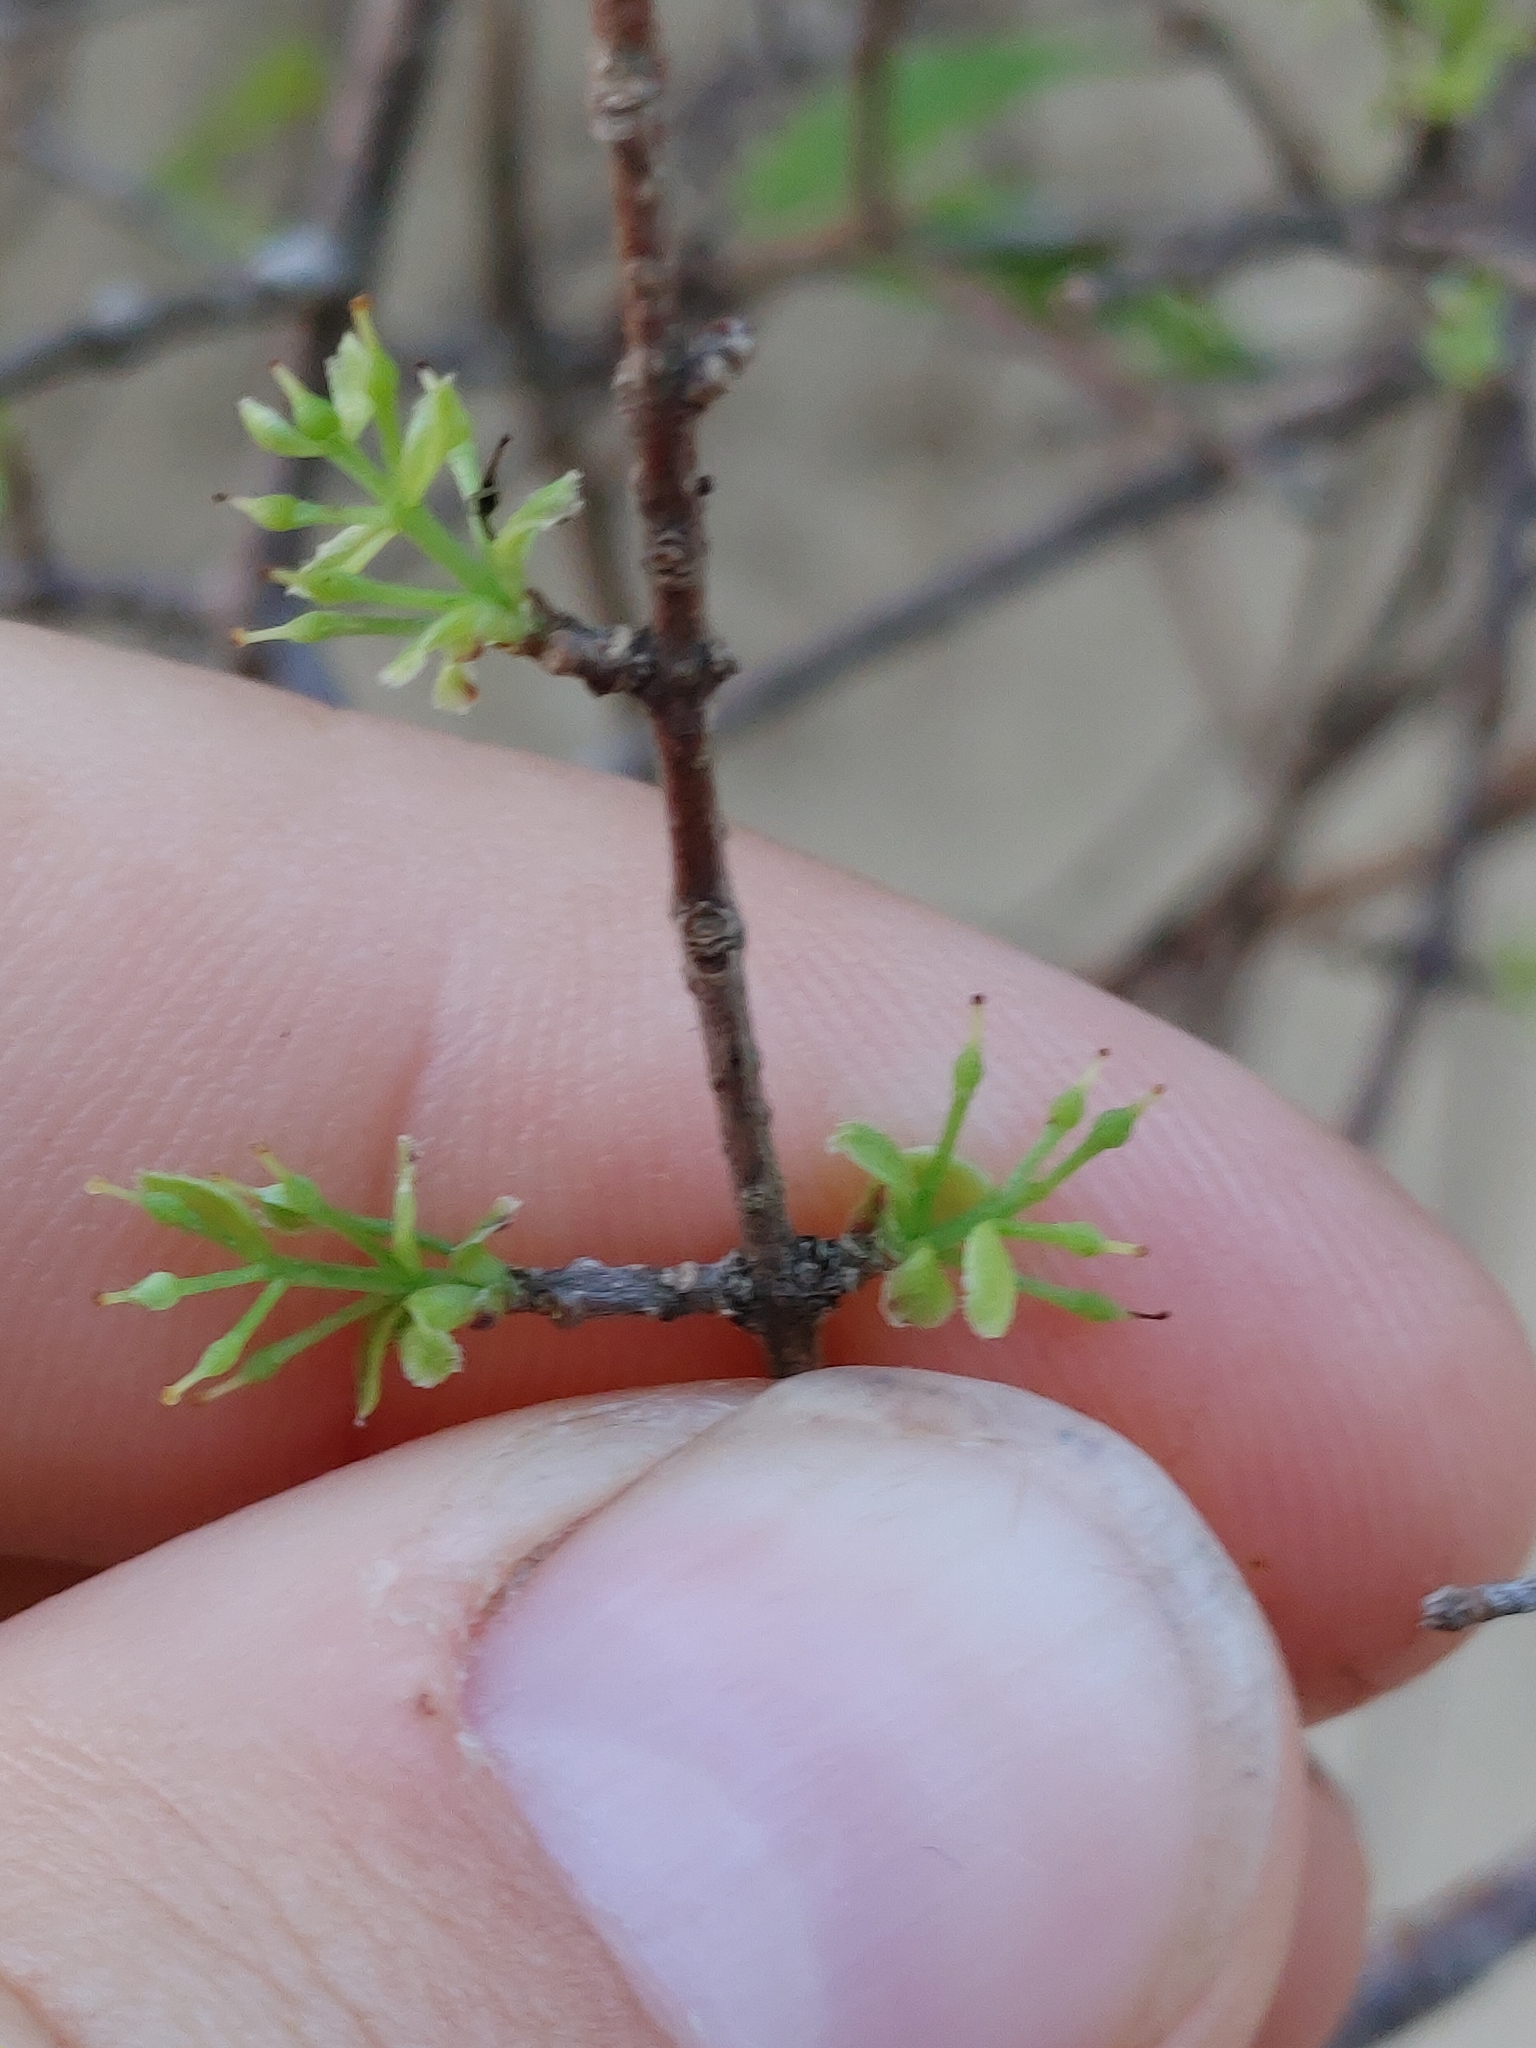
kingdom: Plantae
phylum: Tracheophyta
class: Magnoliopsida
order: Lamiales
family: Oleaceae
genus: Forestiera
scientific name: Forestiera segregata
